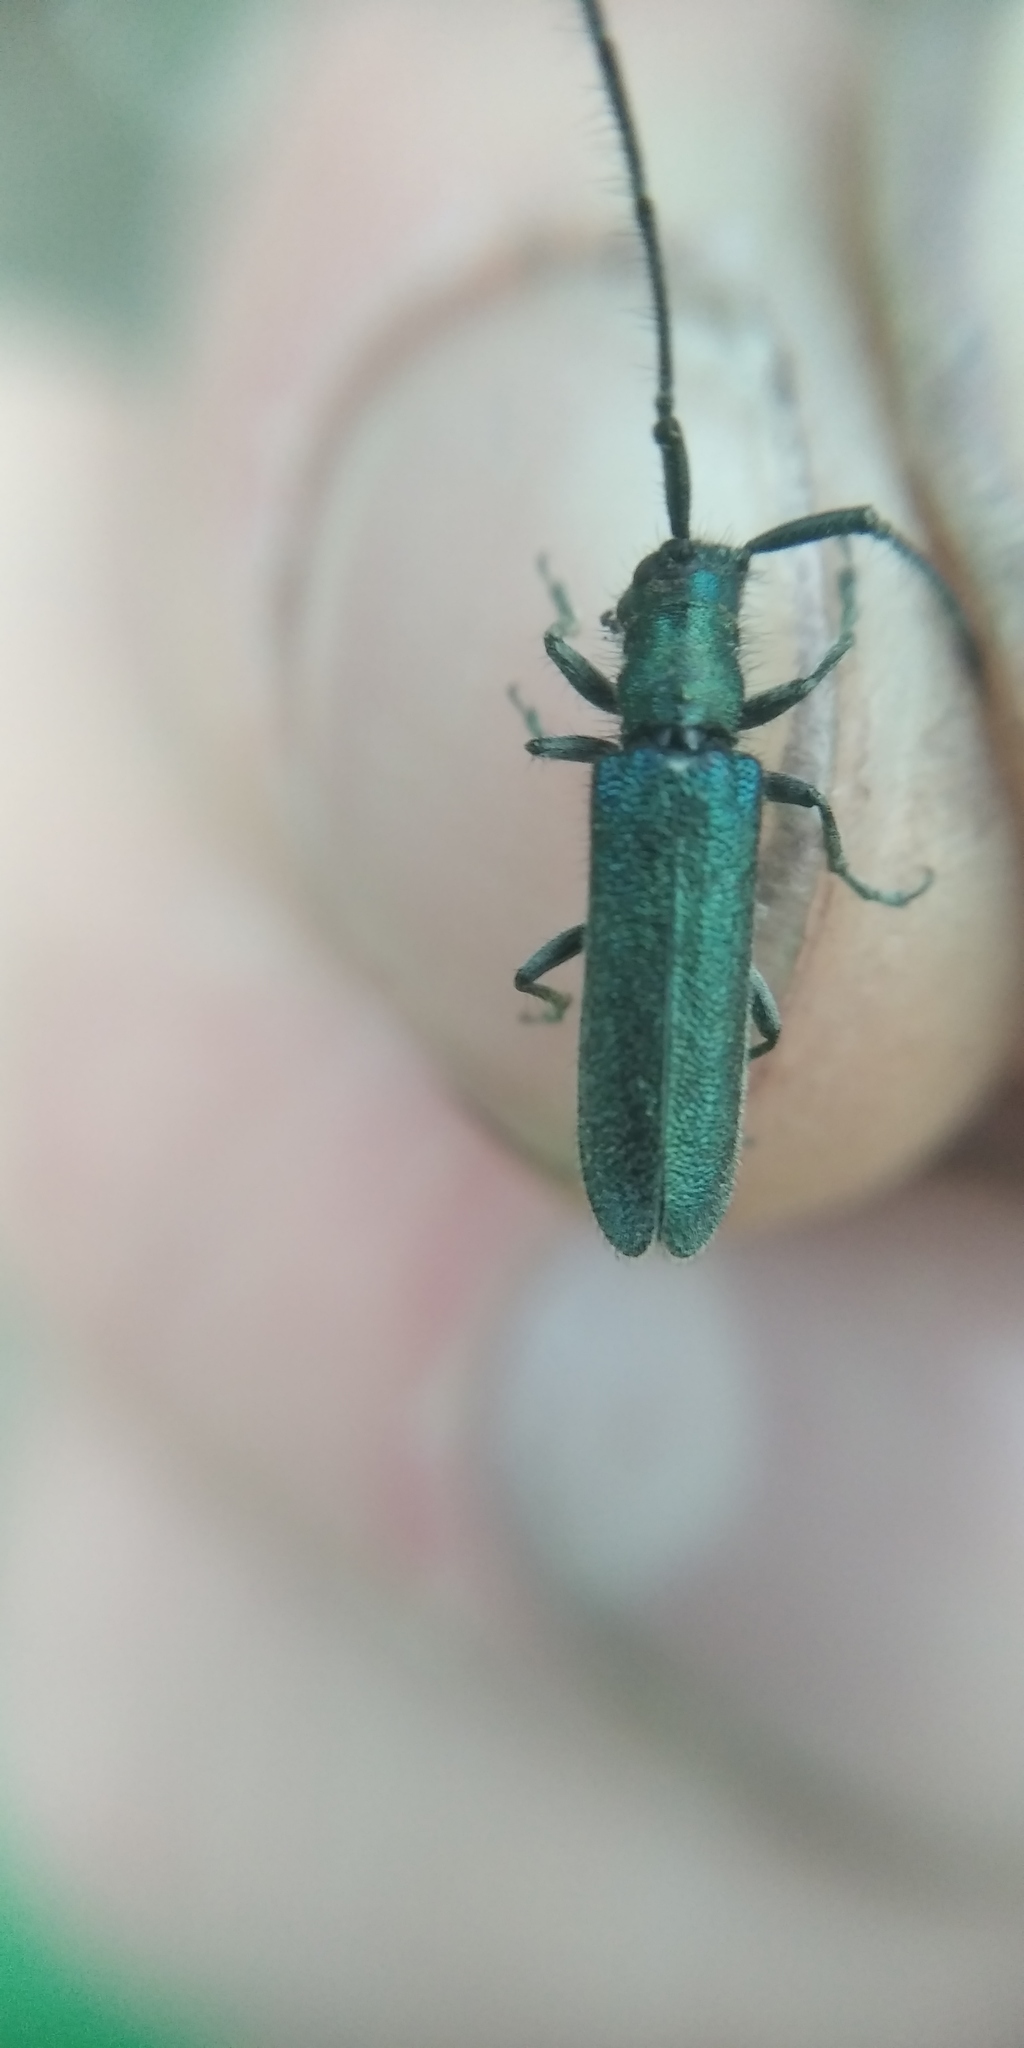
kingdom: Animalia
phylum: Arthropoda
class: Insecta
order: Coleoptera
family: Cerambycidae
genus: Agapanthia
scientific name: Agapanthia intermedia
